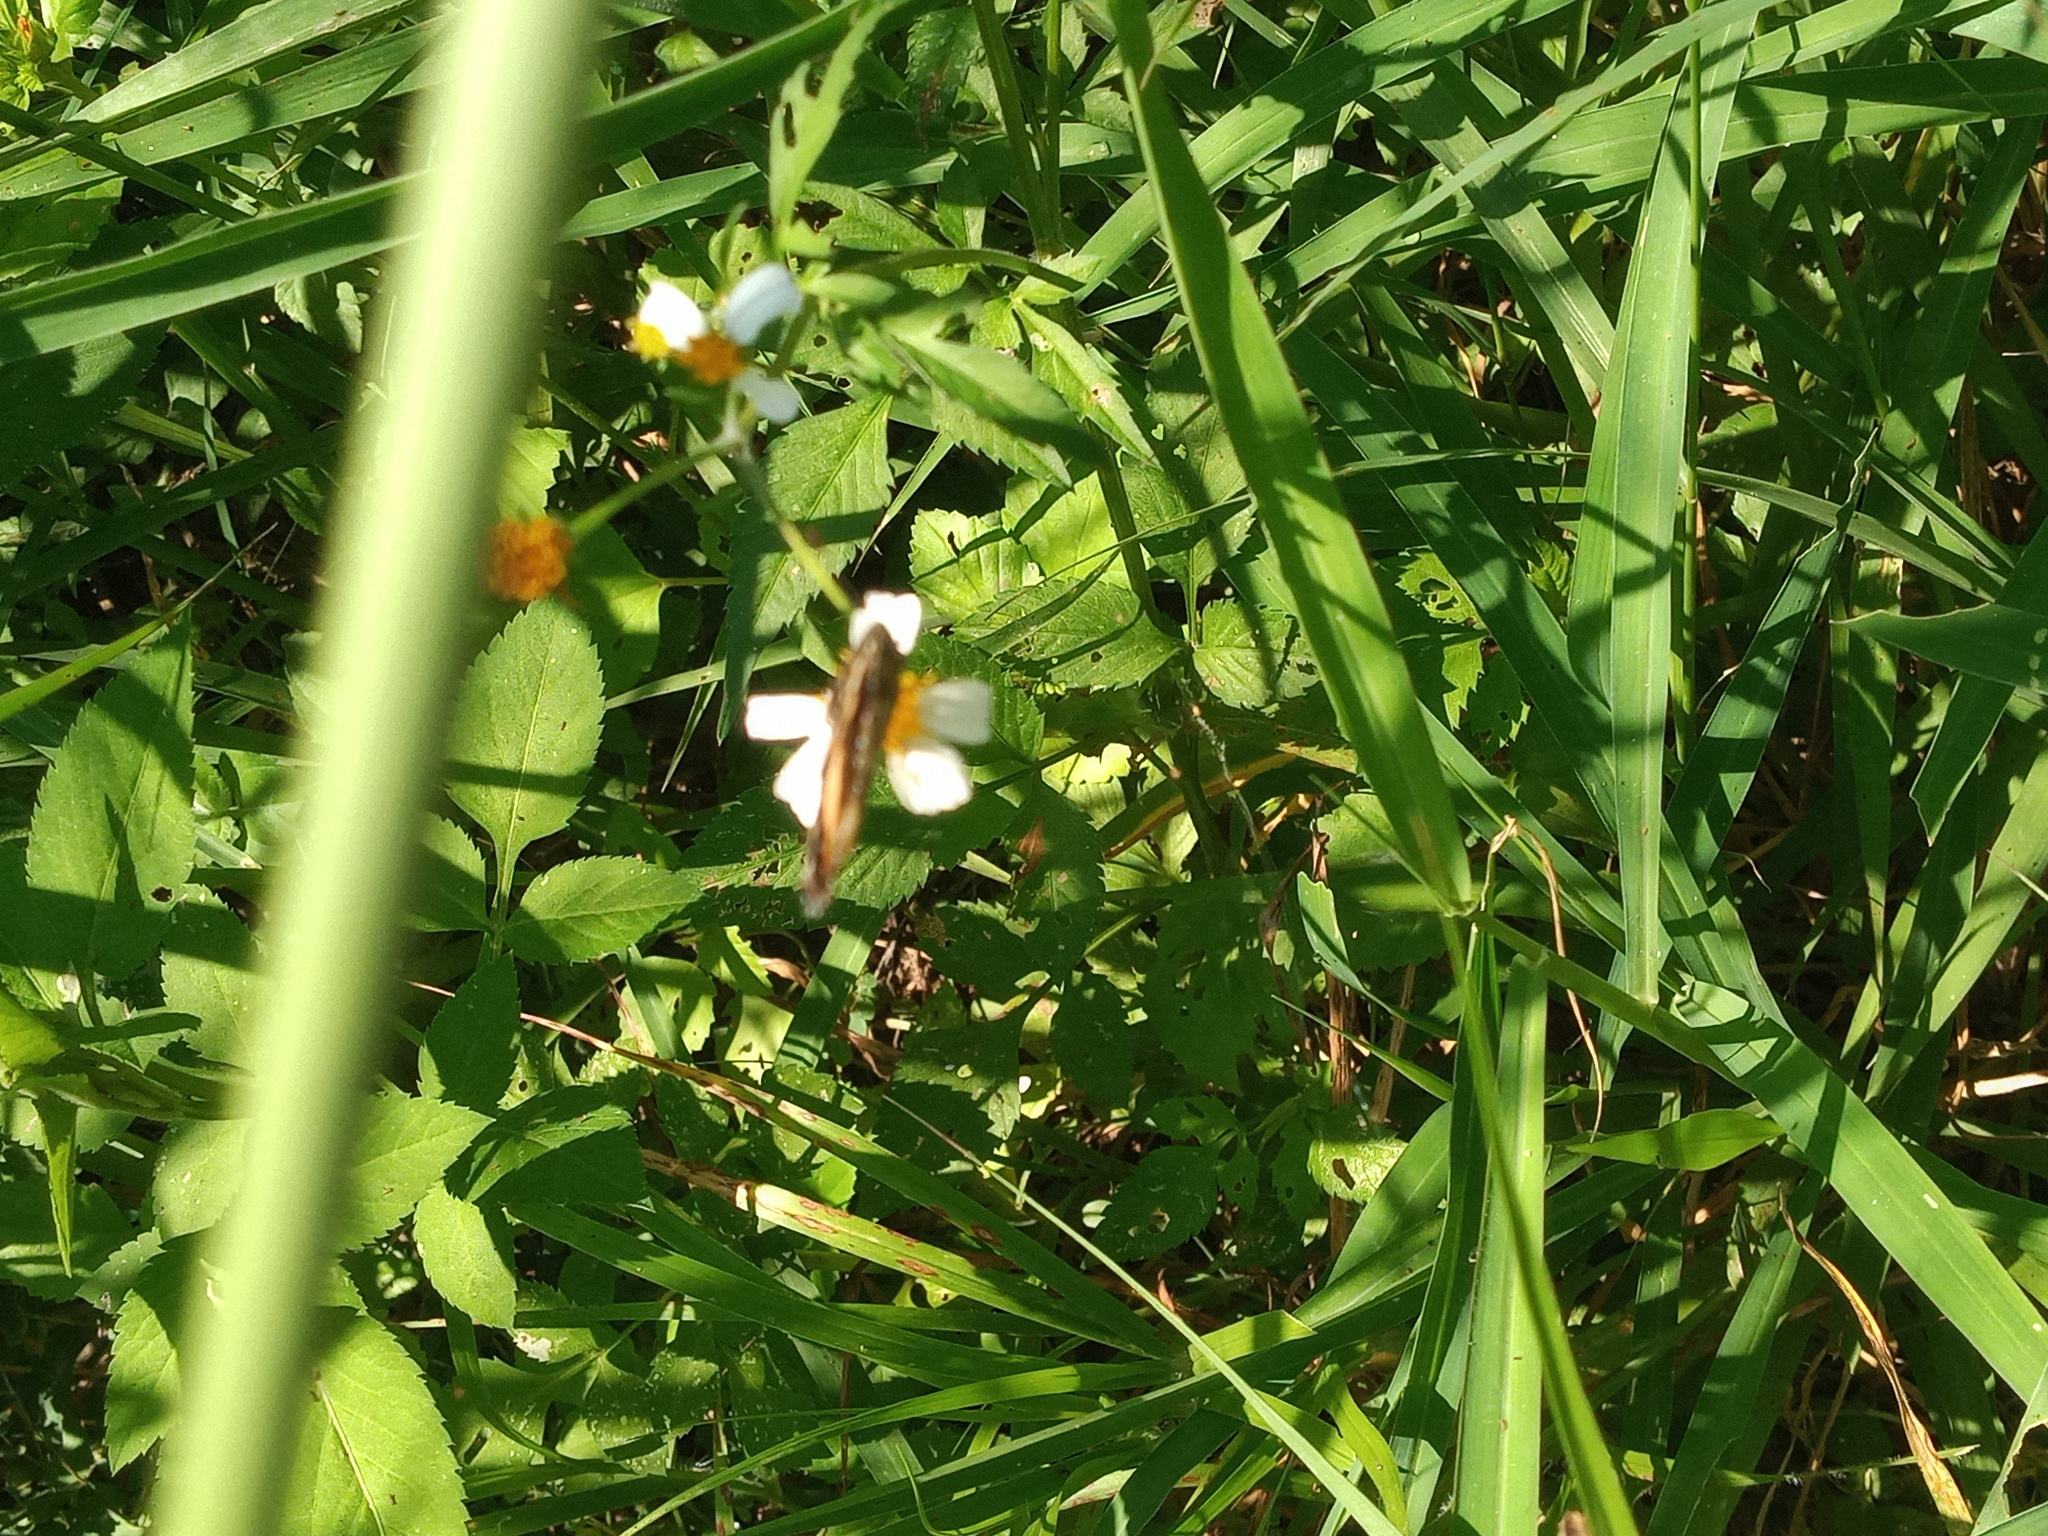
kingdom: Animalia
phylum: Arthropoda
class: Insecta
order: Lepidoptera
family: Nymphalidae
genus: Chlosyne
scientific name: Chlosyne lacinia
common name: Bordered patch
